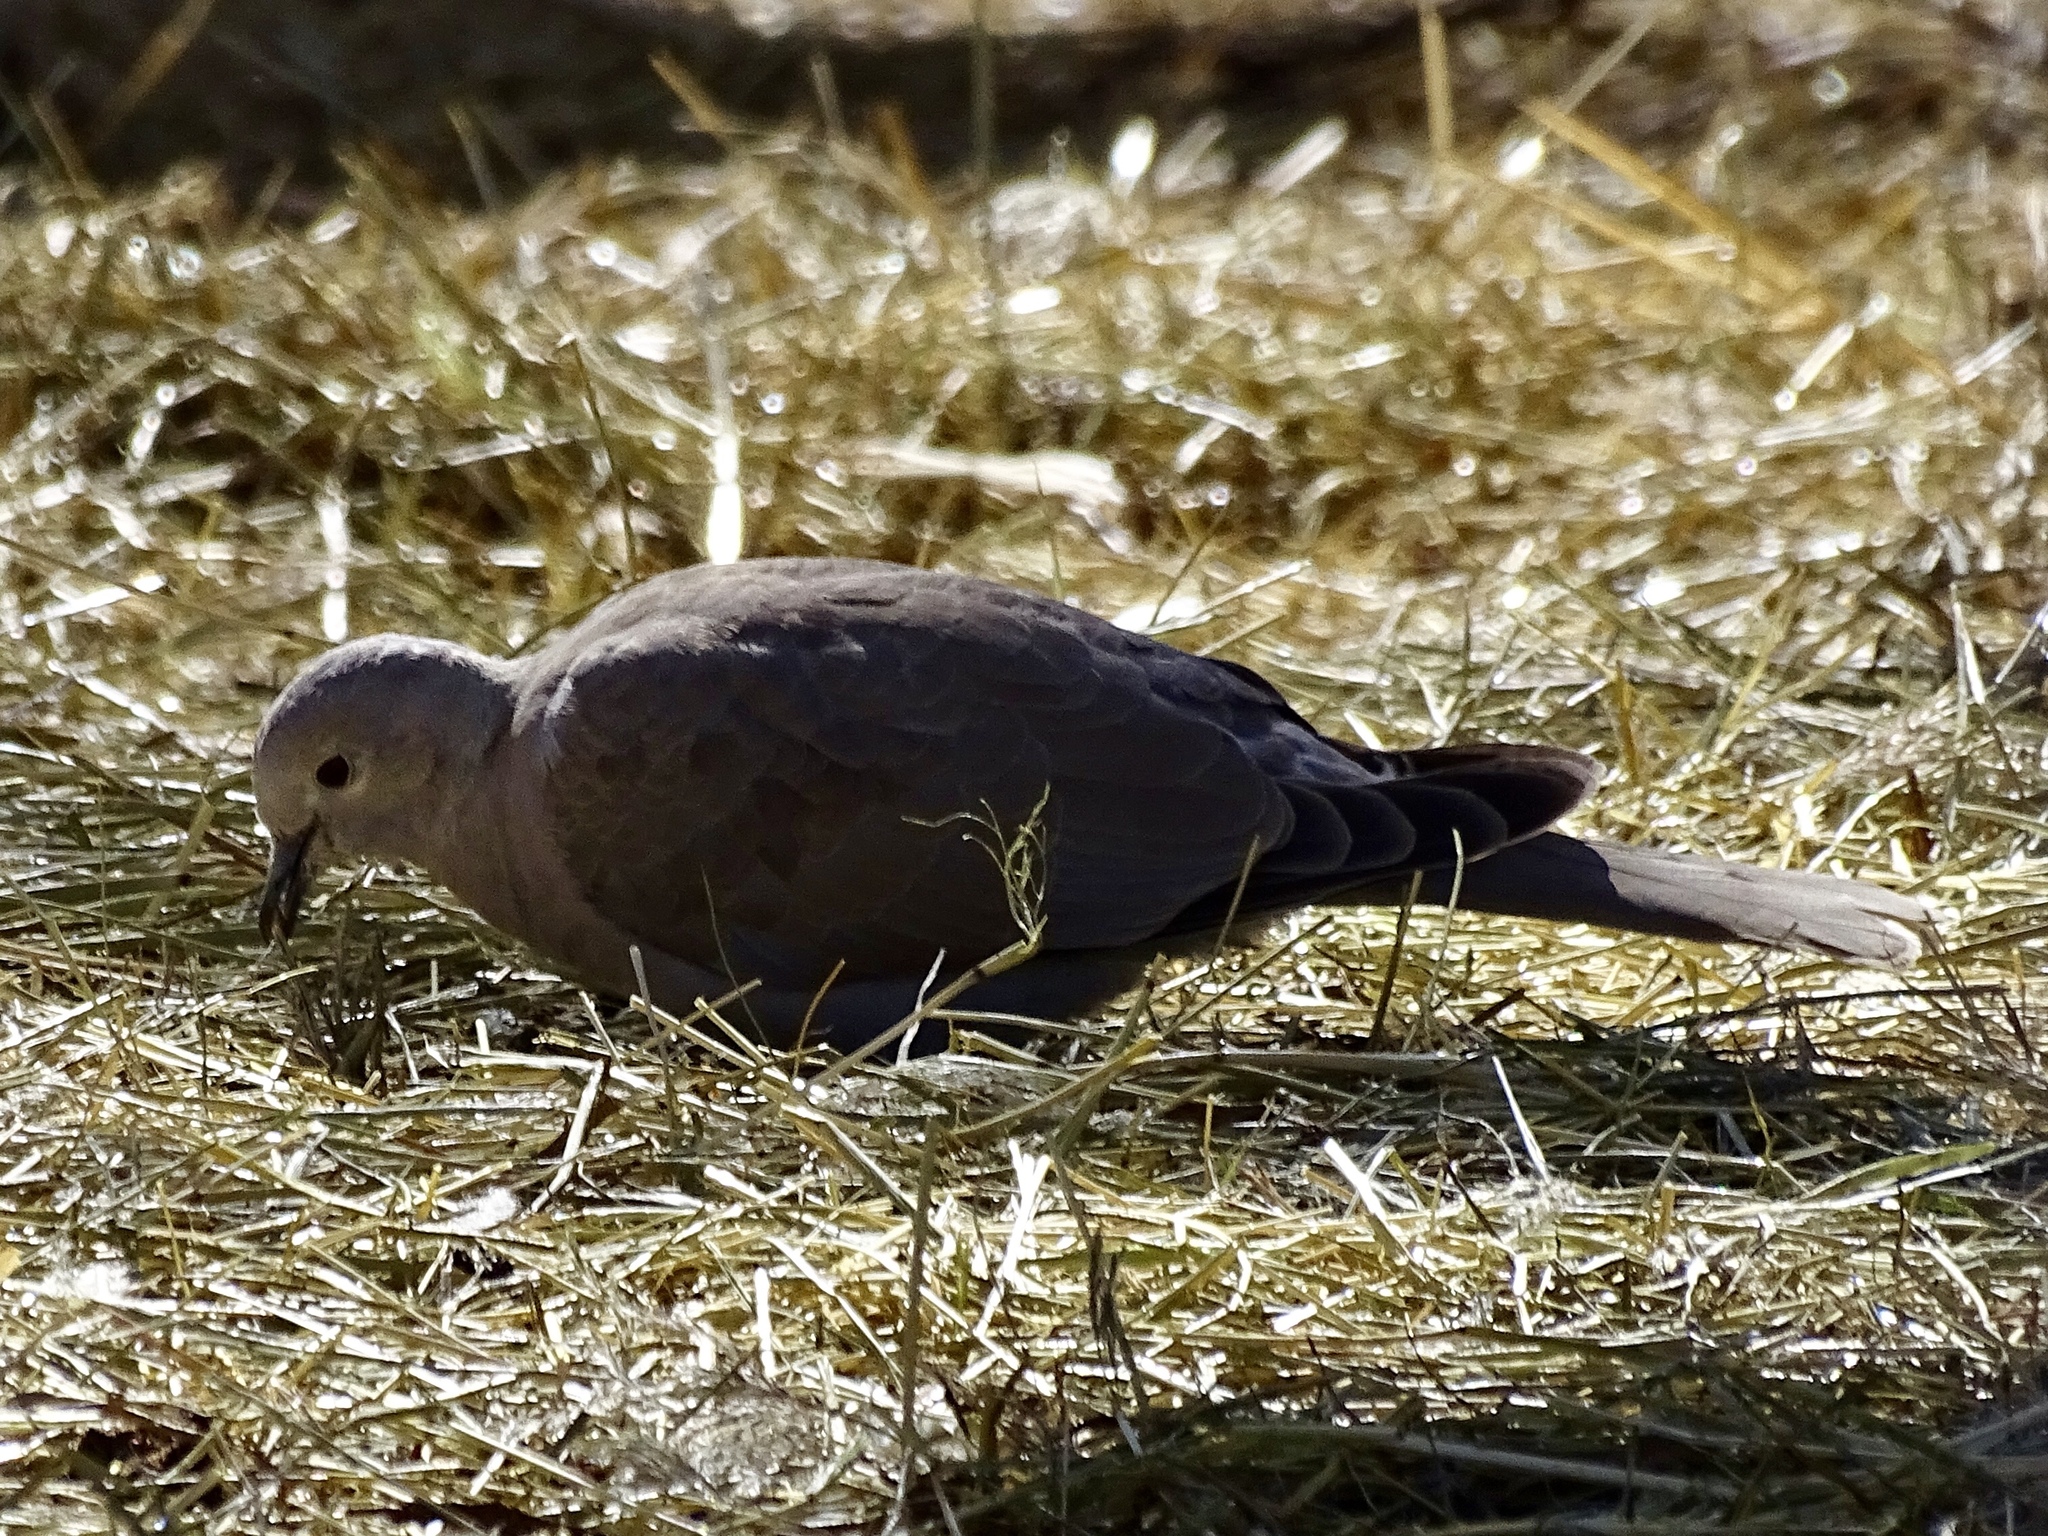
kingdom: Animalia
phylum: Chordata
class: Aves
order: Columbiformes
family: Columbidae
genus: Zenaida
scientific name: Zenaida macroura
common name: Mourning dove
